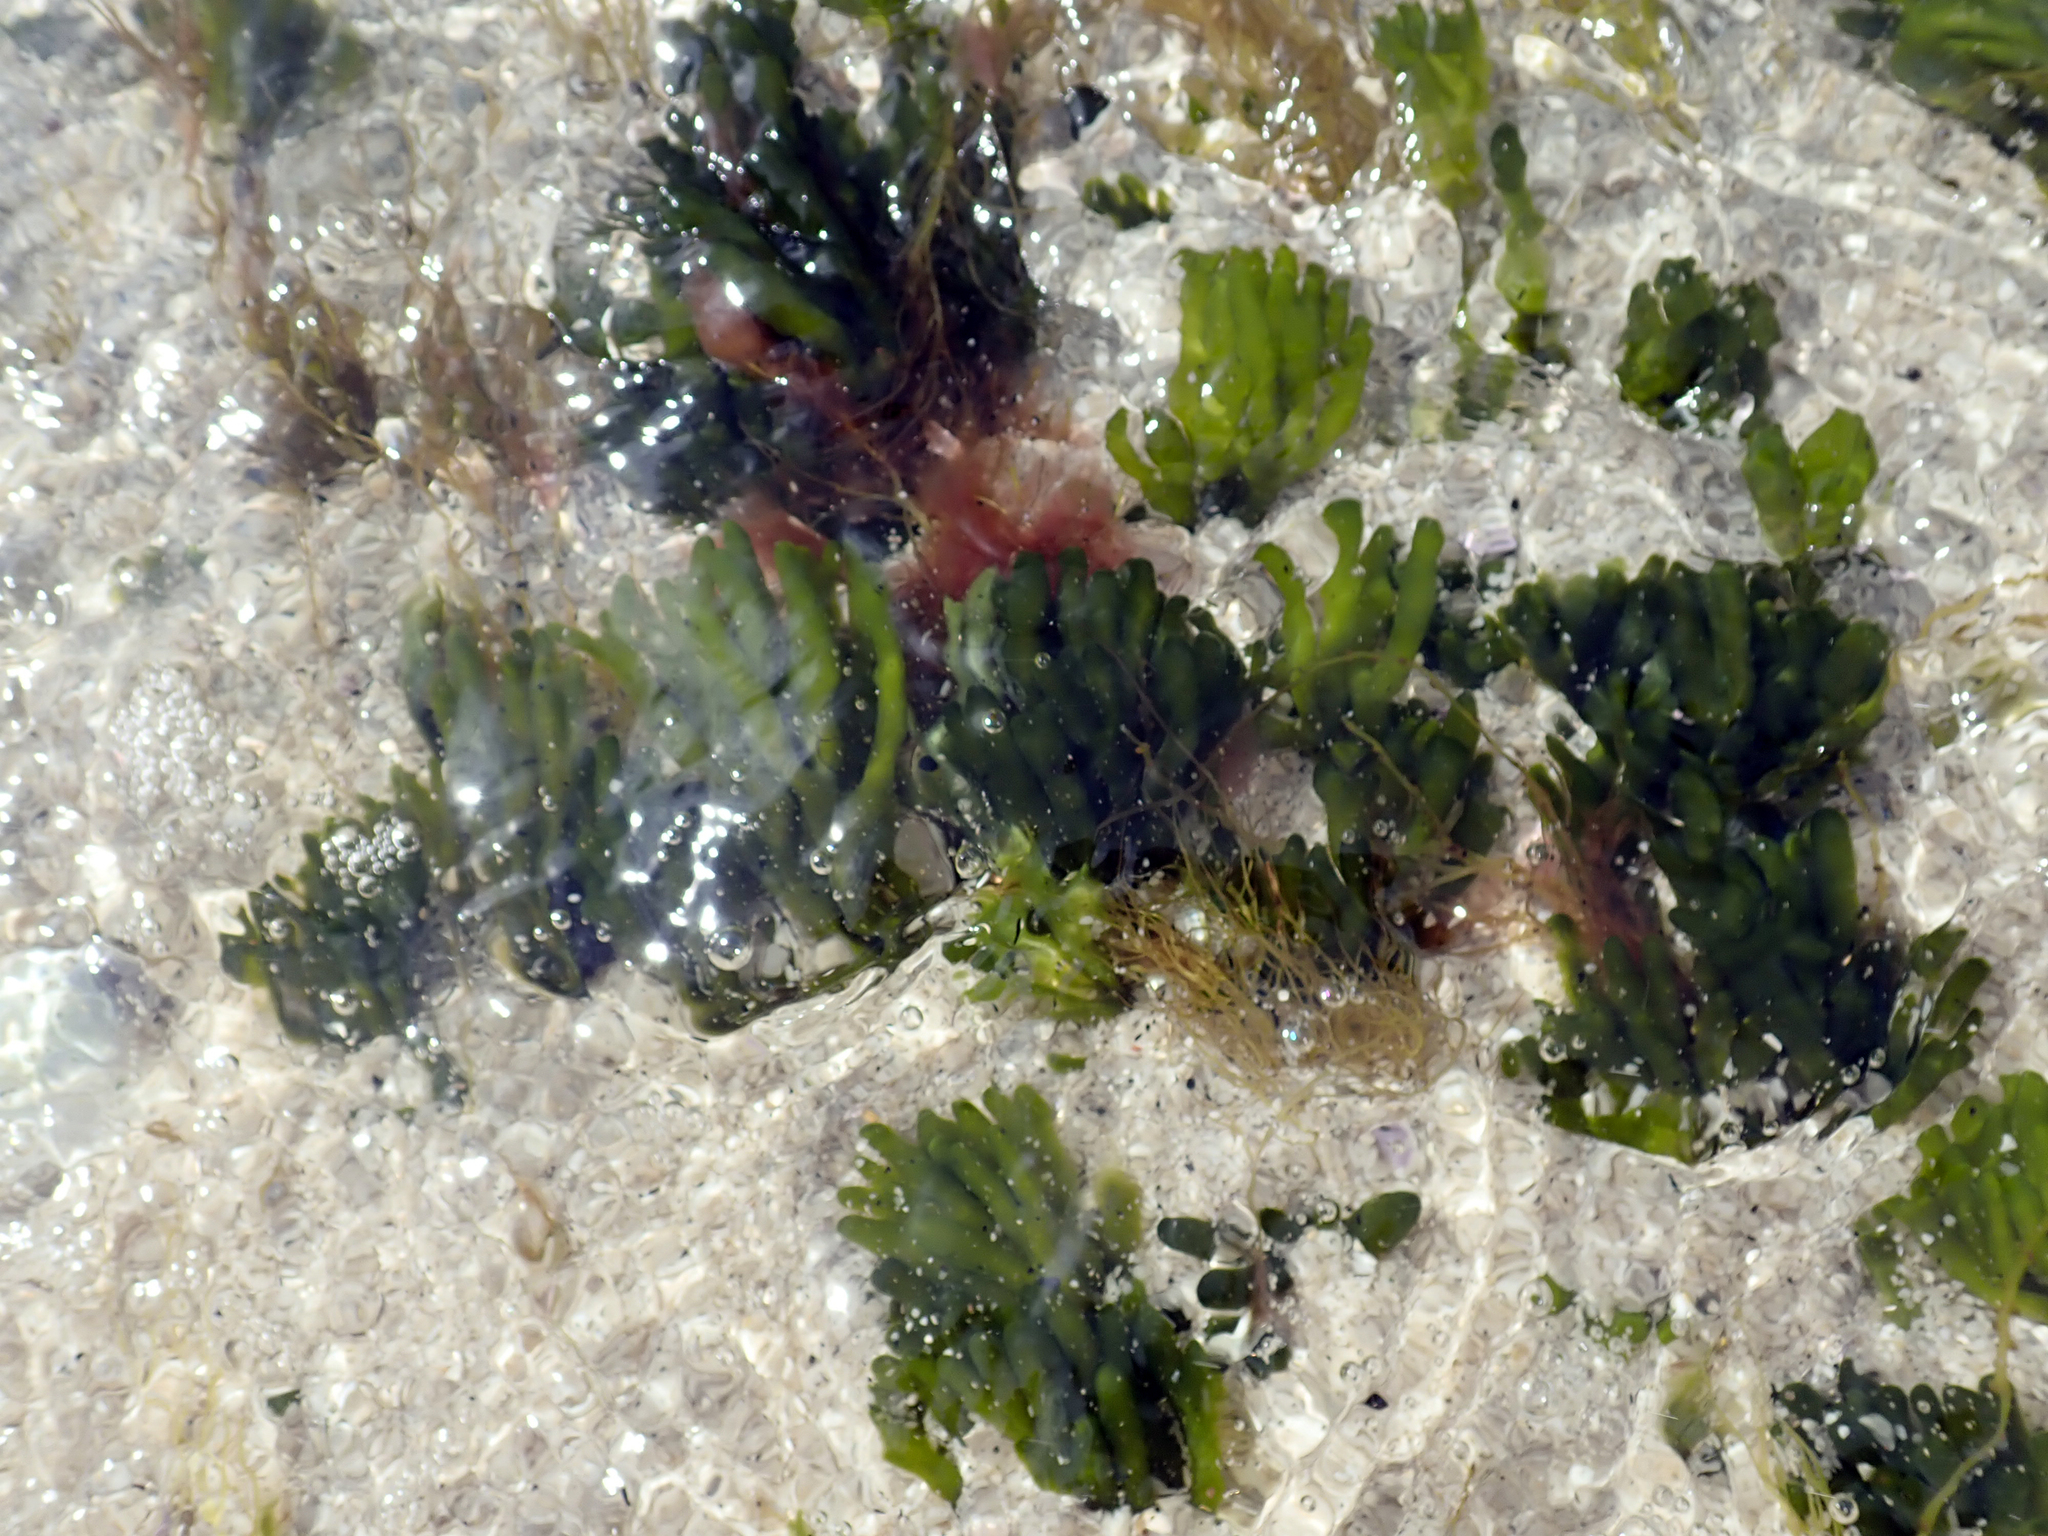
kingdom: Plantae
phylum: Chlorophyta
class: Ulvophyceae
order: Bryopsidales
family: Codiaceae
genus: Codium
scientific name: Codium fragile
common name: Dead man's fingers
